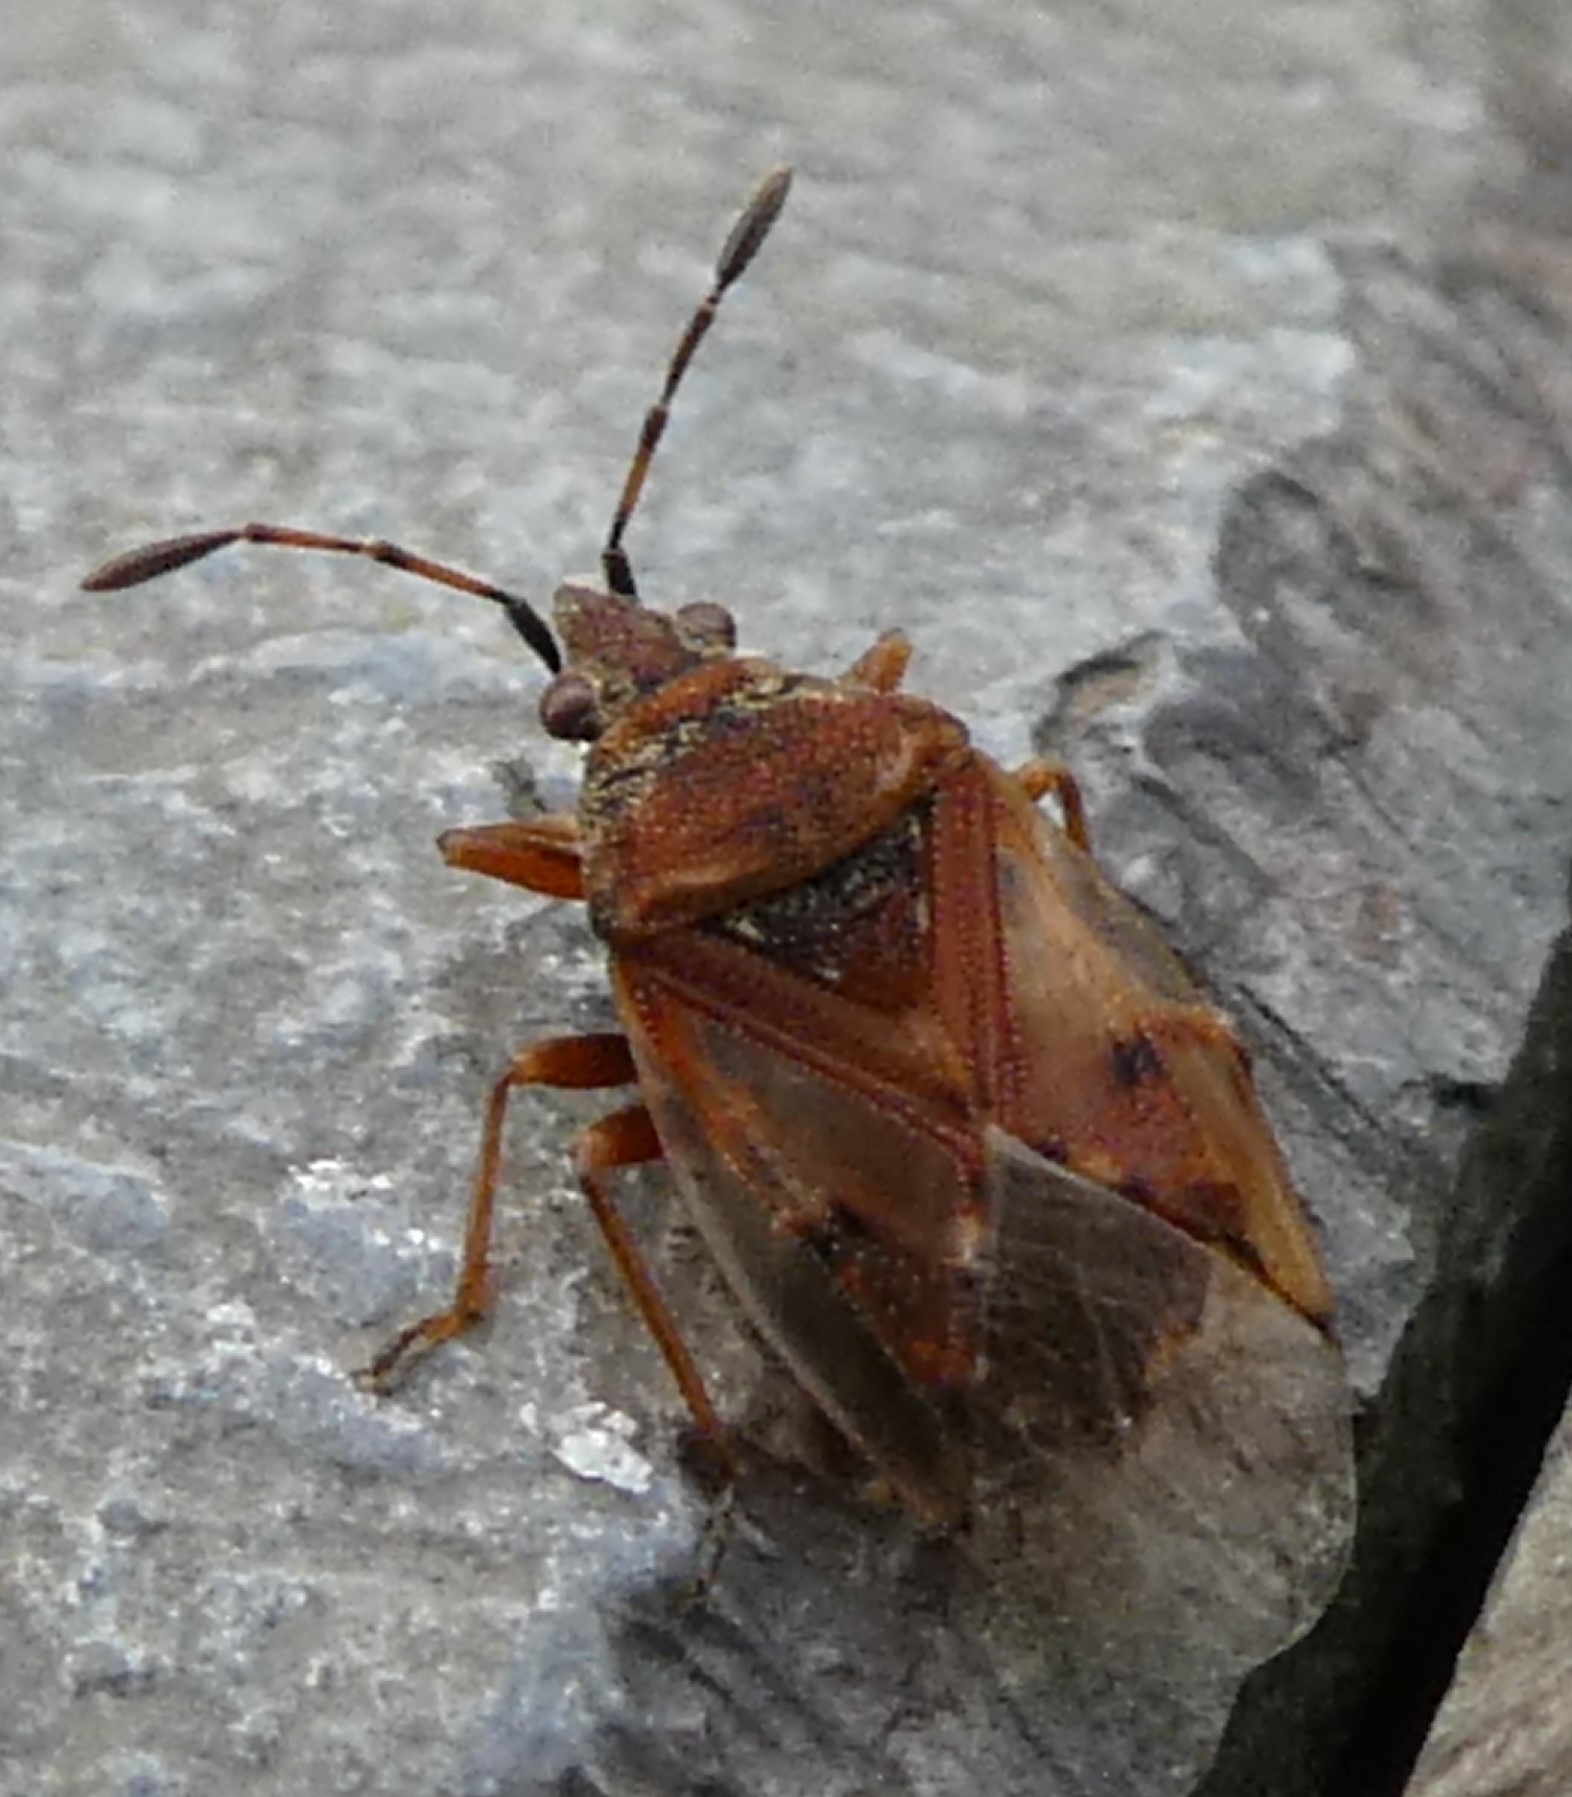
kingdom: Animalia
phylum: Arthropoda
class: Insecta
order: Hemiptera
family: Lygaeidae
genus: Kleidocerys
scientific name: Kleidocerys resedae
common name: Birch catkin bug
